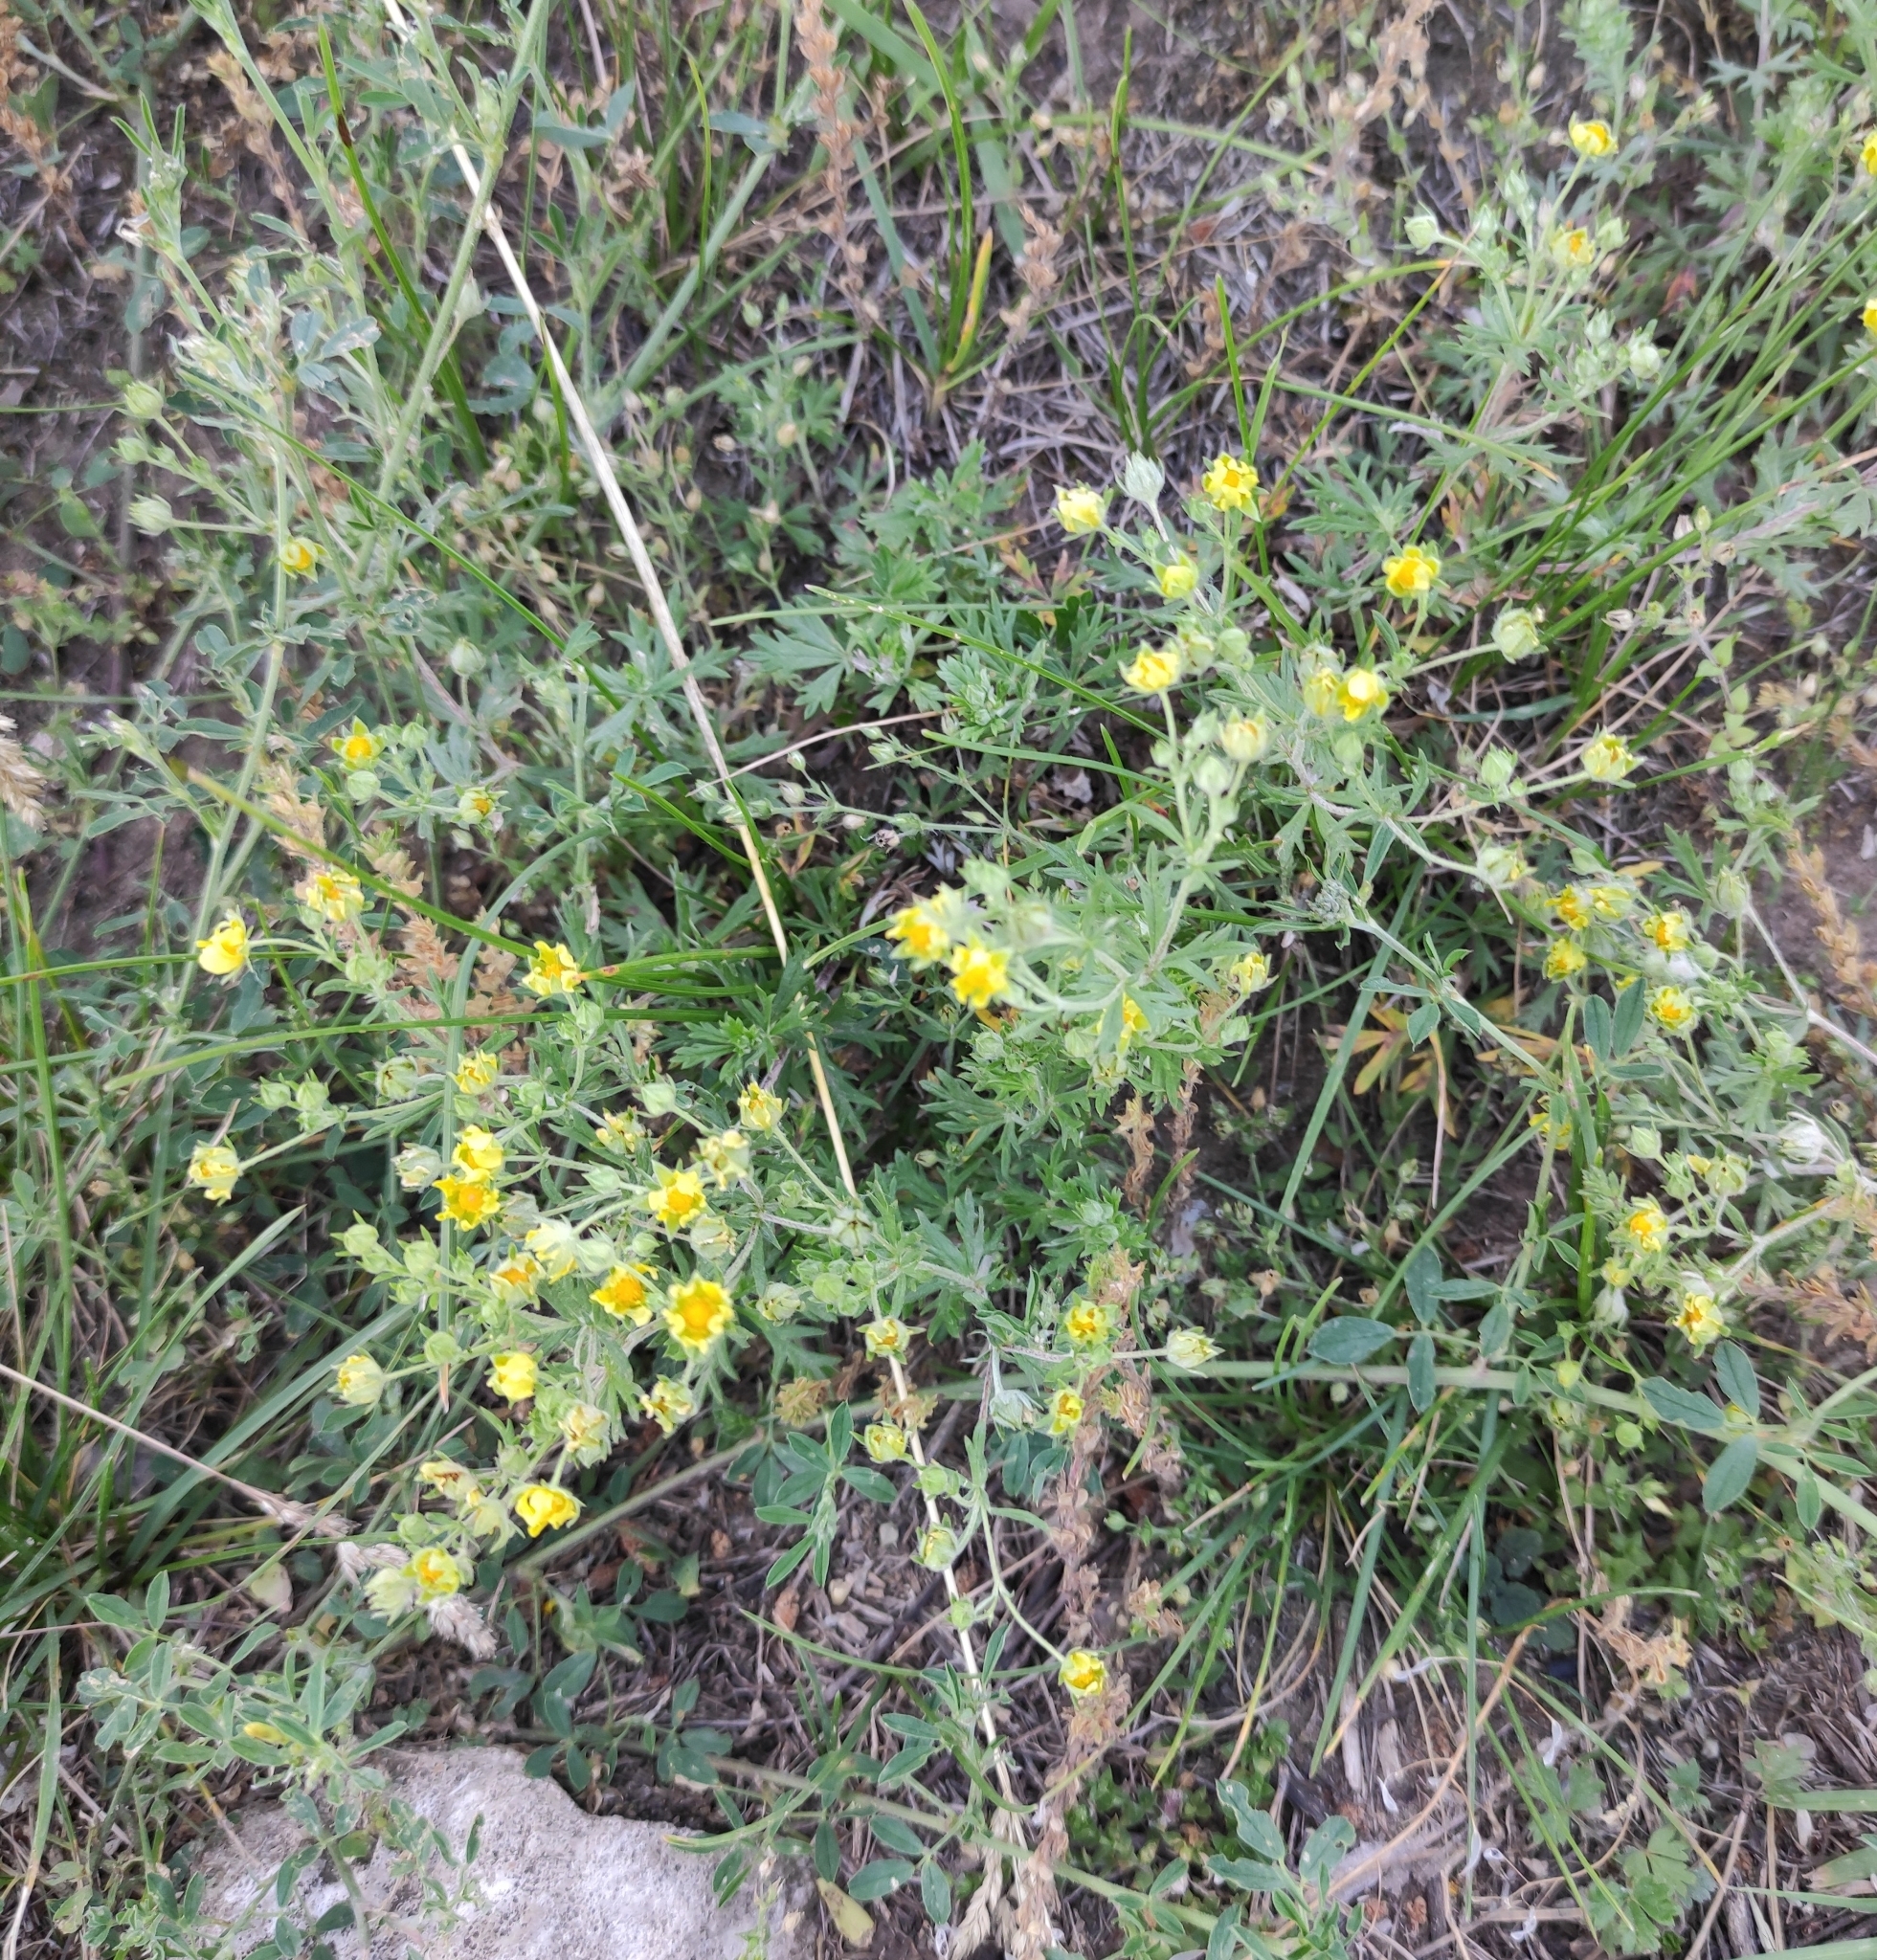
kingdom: Plantae
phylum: Tracheophyta
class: Magnoliopsida
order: Rosales
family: Rosaceae
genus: Potentilla
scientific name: Potentilla argentea
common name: Hoary cinquefoil
